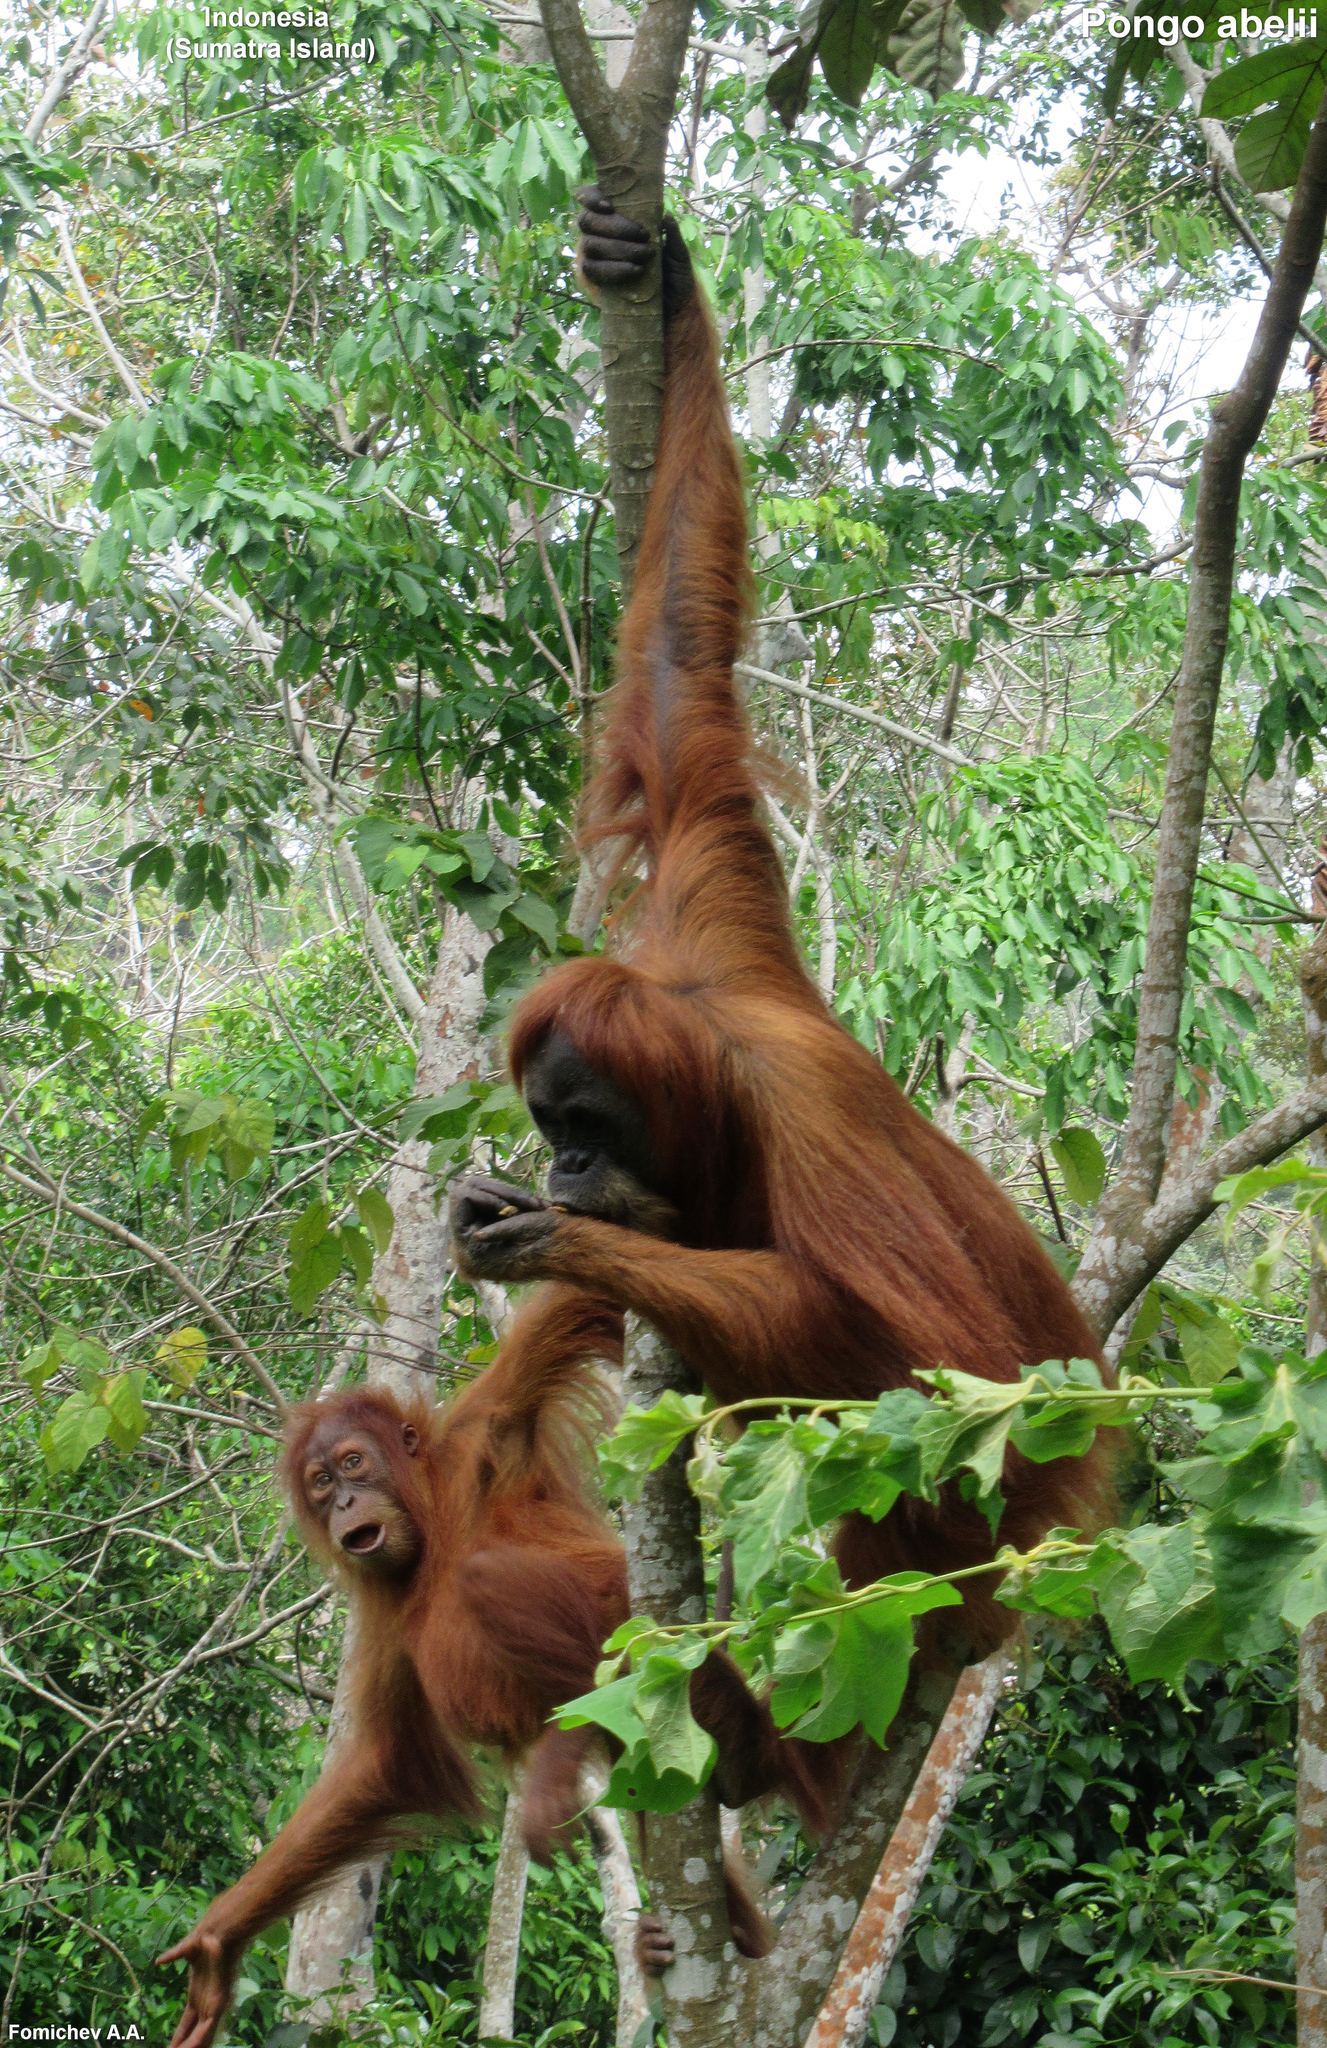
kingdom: Animalia
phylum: Chordata
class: Mammalia
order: Primates
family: Hominidae
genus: Pongo
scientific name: Pongo abelii
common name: Sumatran orangutan
